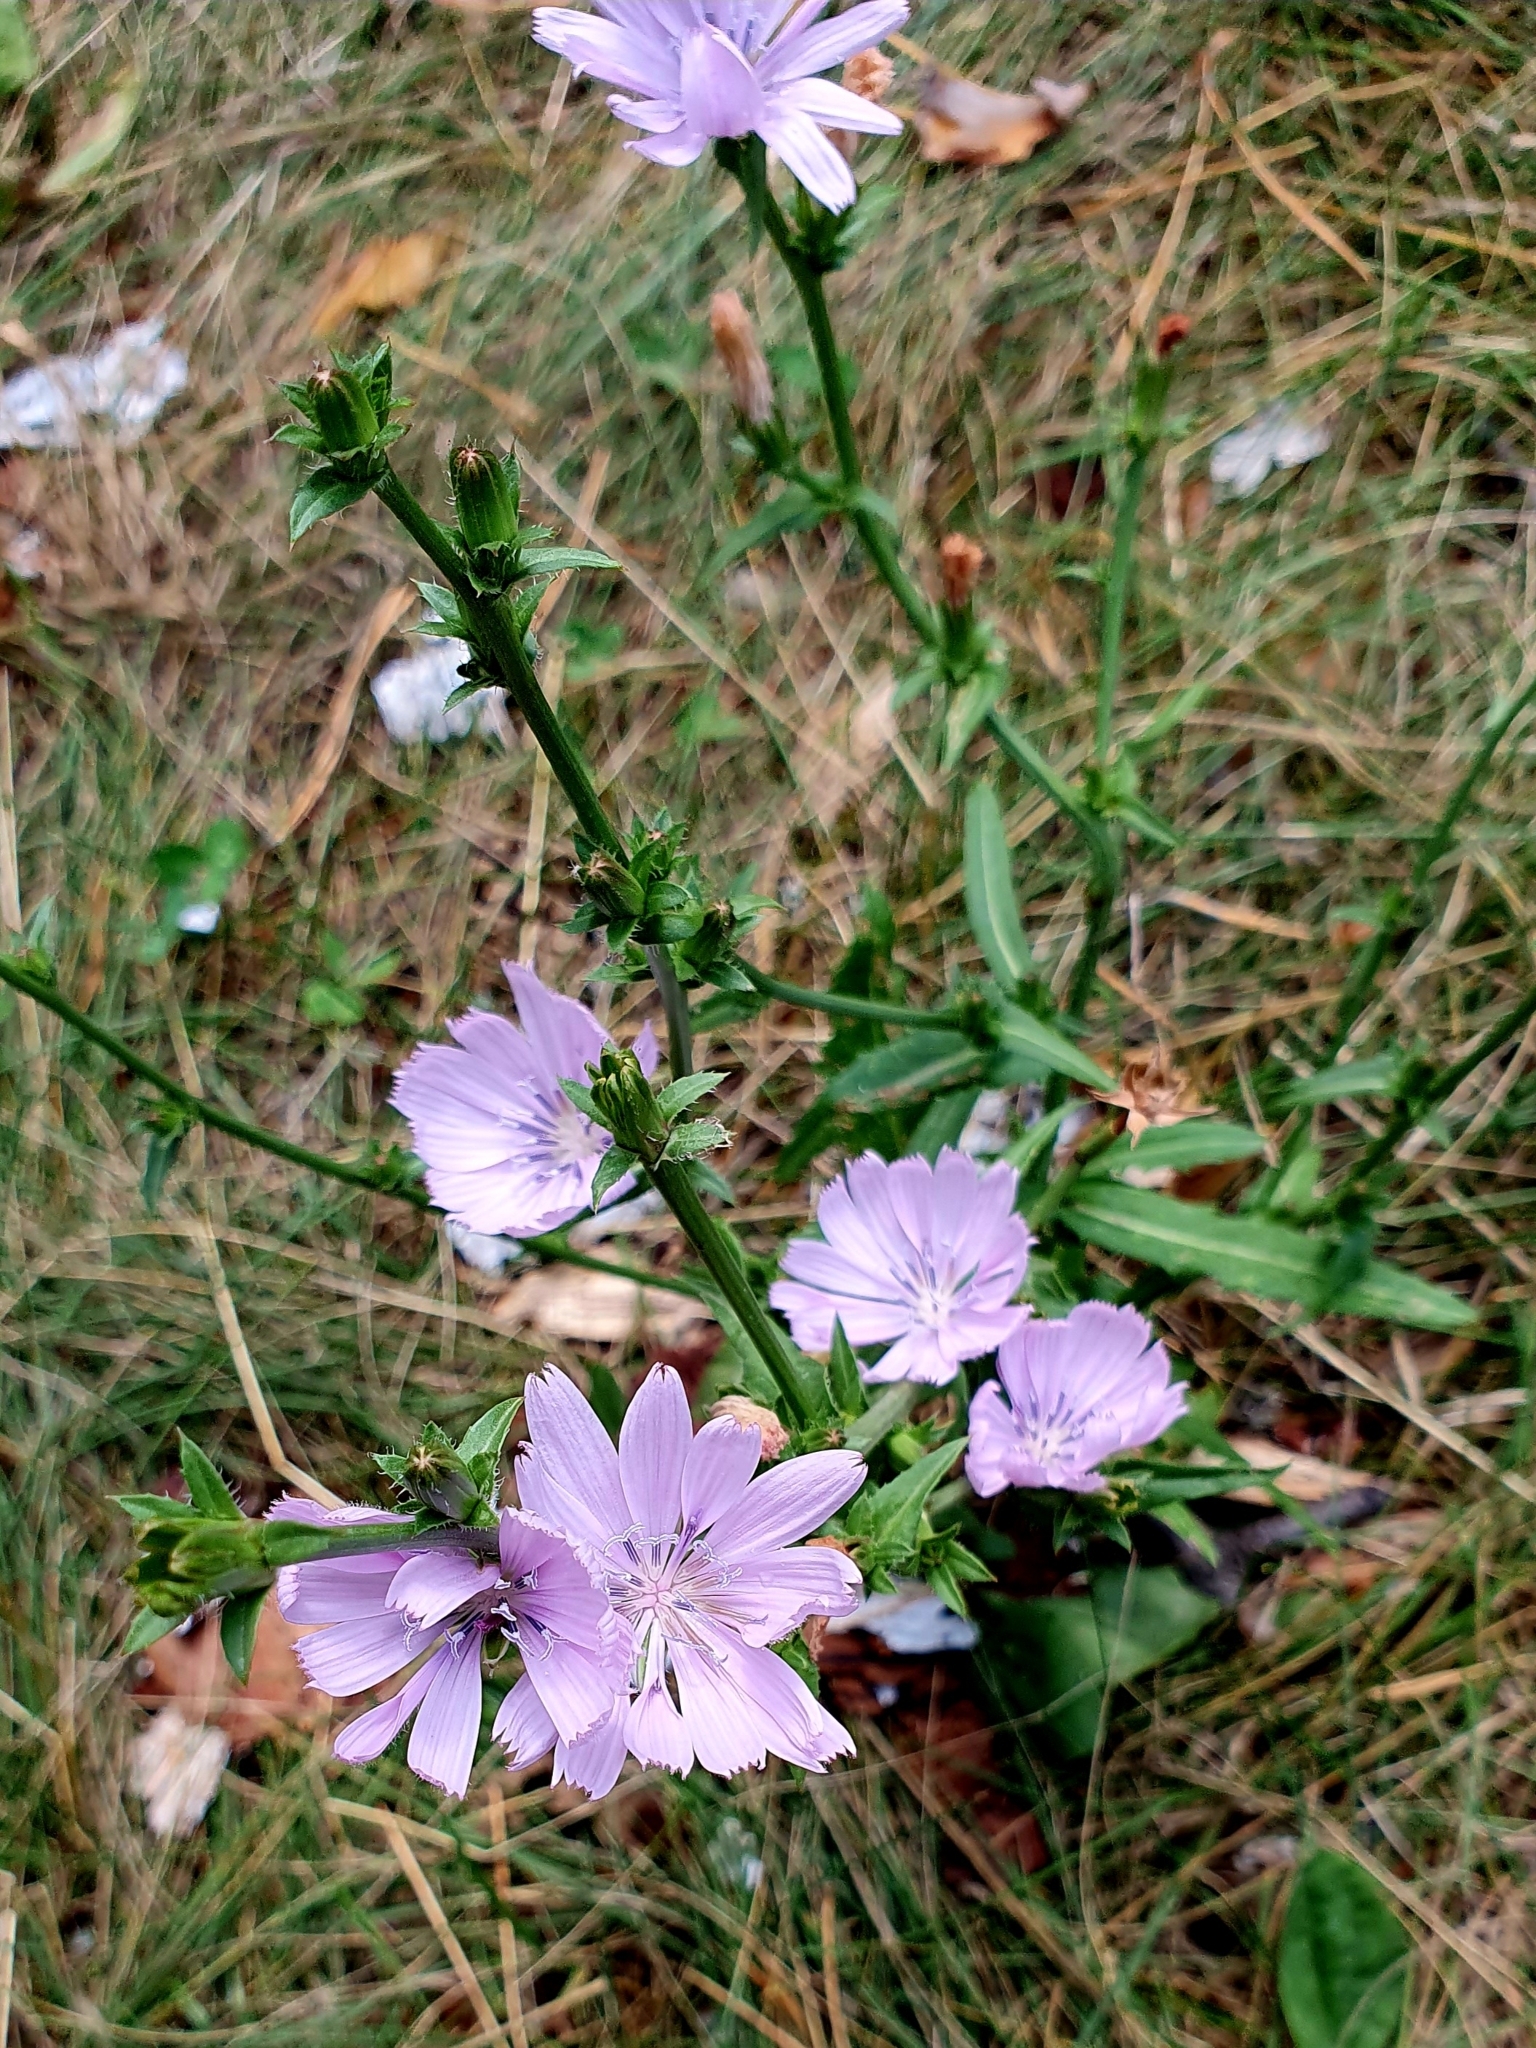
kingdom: Plantae
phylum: Tracheophyta
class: Magnoliopsida
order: Asterales
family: Asteraceae
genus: Cichorium
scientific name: Cichorium intybus
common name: Chicory
